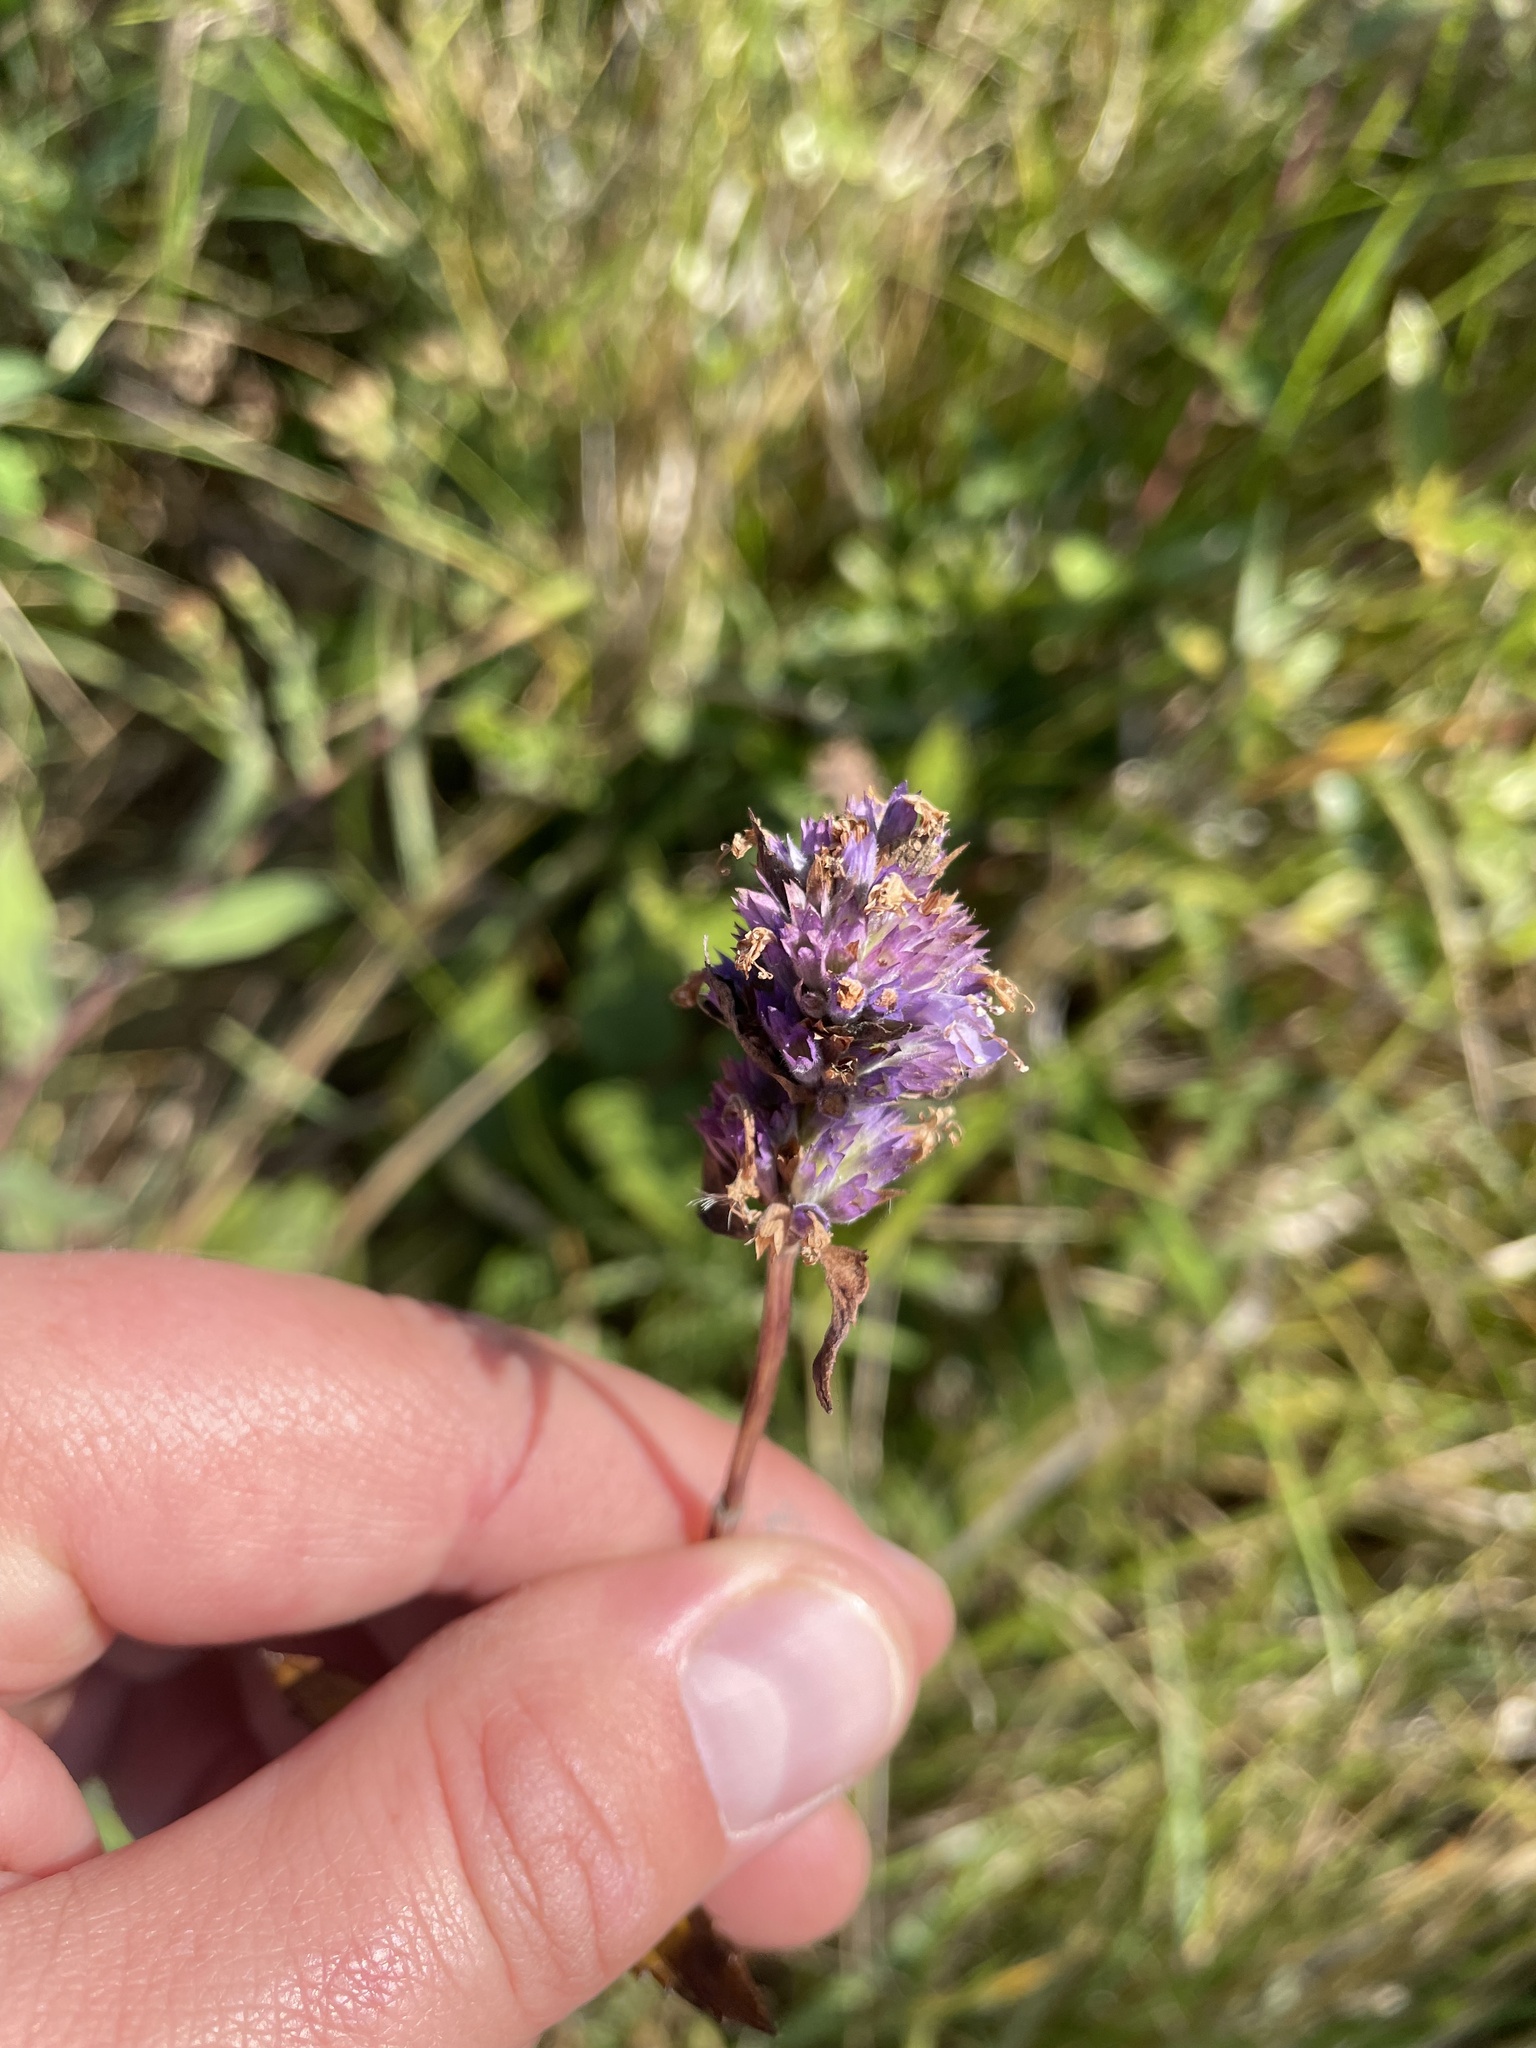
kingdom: Plantae
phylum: Tracheophyta
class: Magnoliopsida
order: Lamiales
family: Lamiaceae
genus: Agastache
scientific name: Agastache foeniculum
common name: Anise hyssop
